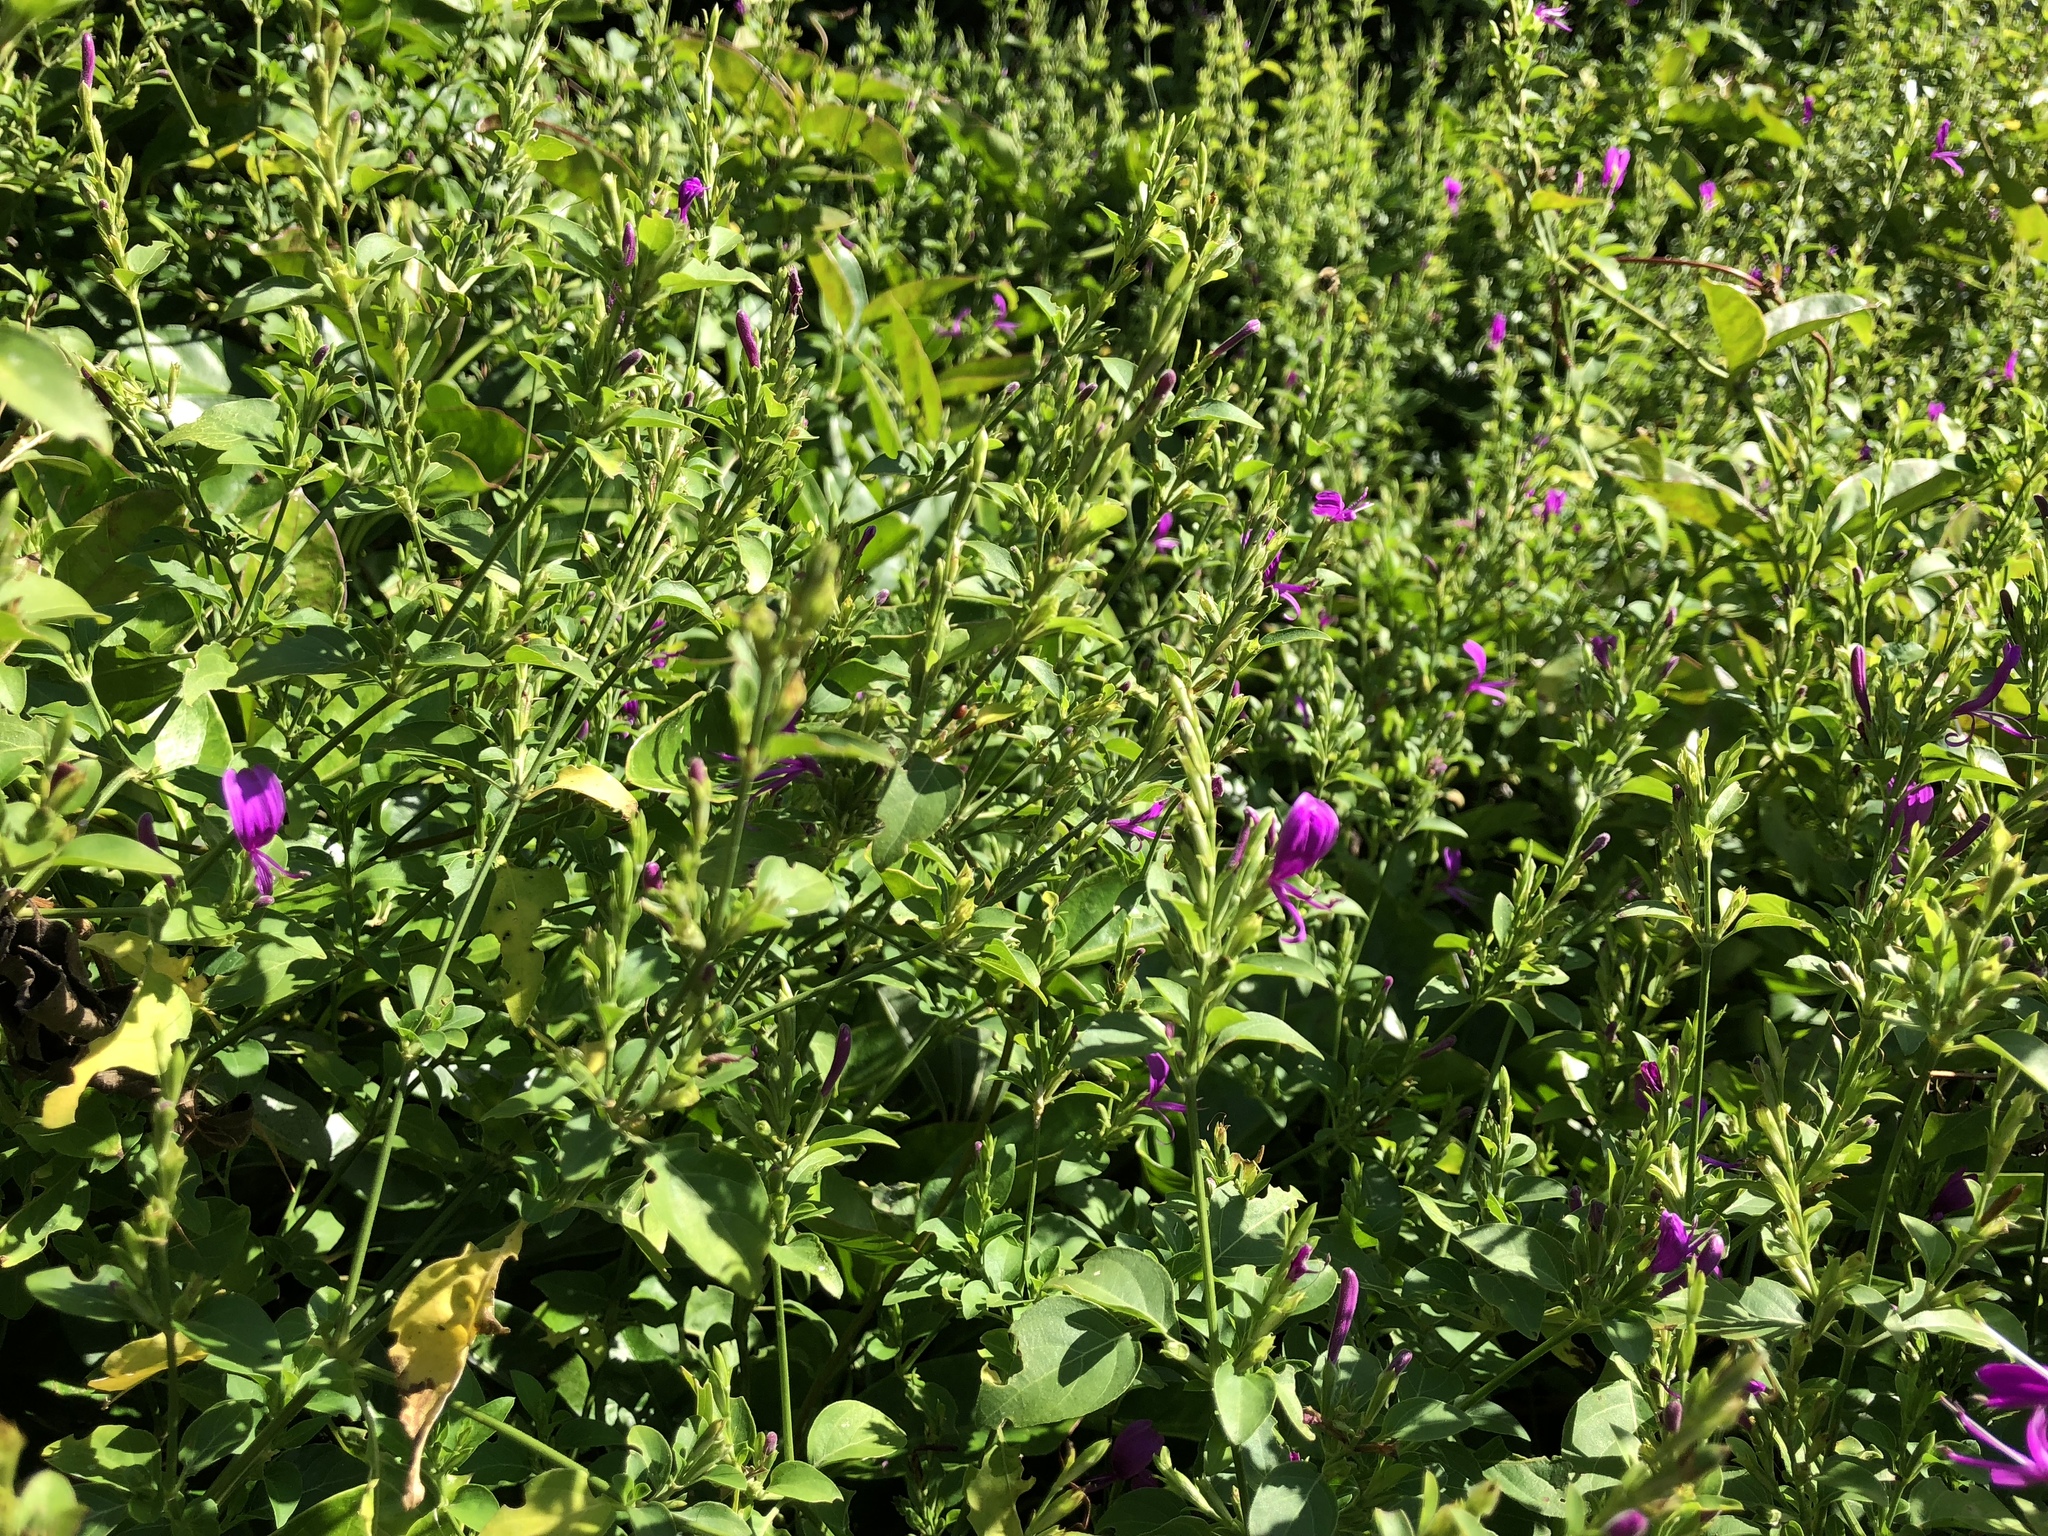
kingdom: Plantae
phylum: Tracheophyta
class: Magnoliopsida
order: Lamiales
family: Acanthaceae
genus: Hypoestes
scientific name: Hypoestes purpurea
